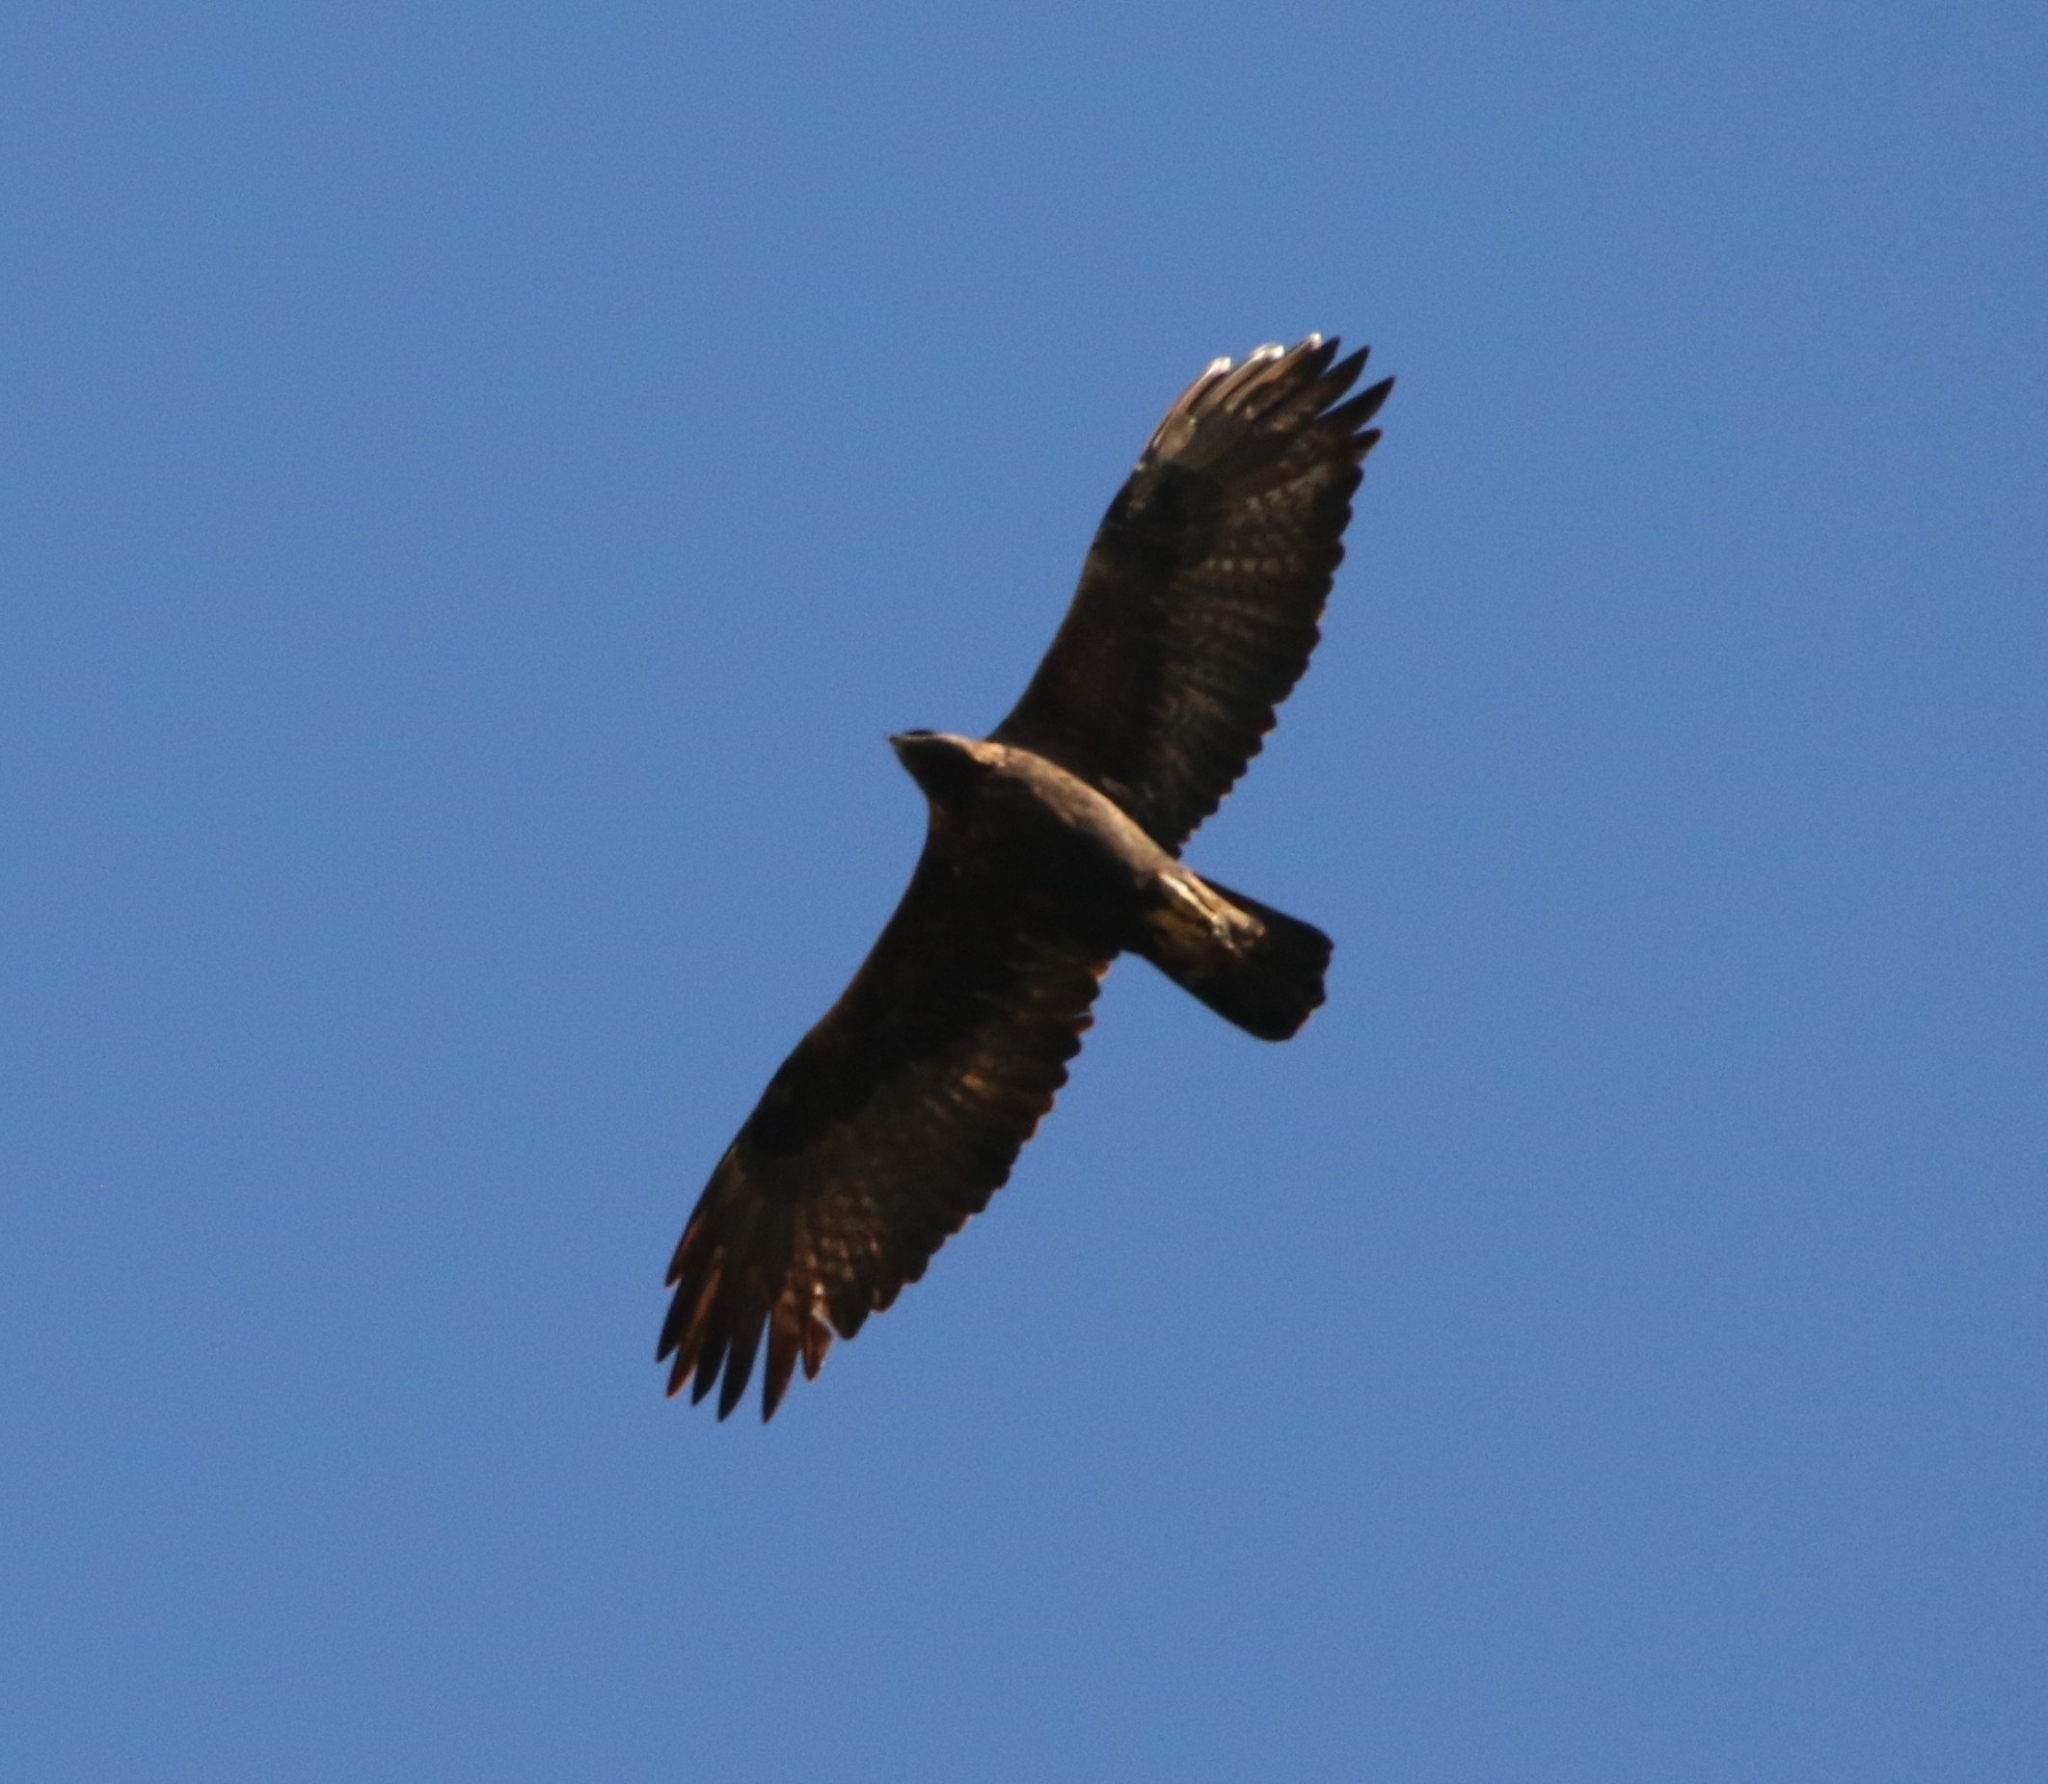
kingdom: Animalia
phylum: Chordata
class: Aves
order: Accipitriformes
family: Accipitridae
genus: Aquila
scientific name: Aquila chrysaetos
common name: Golden eagle
